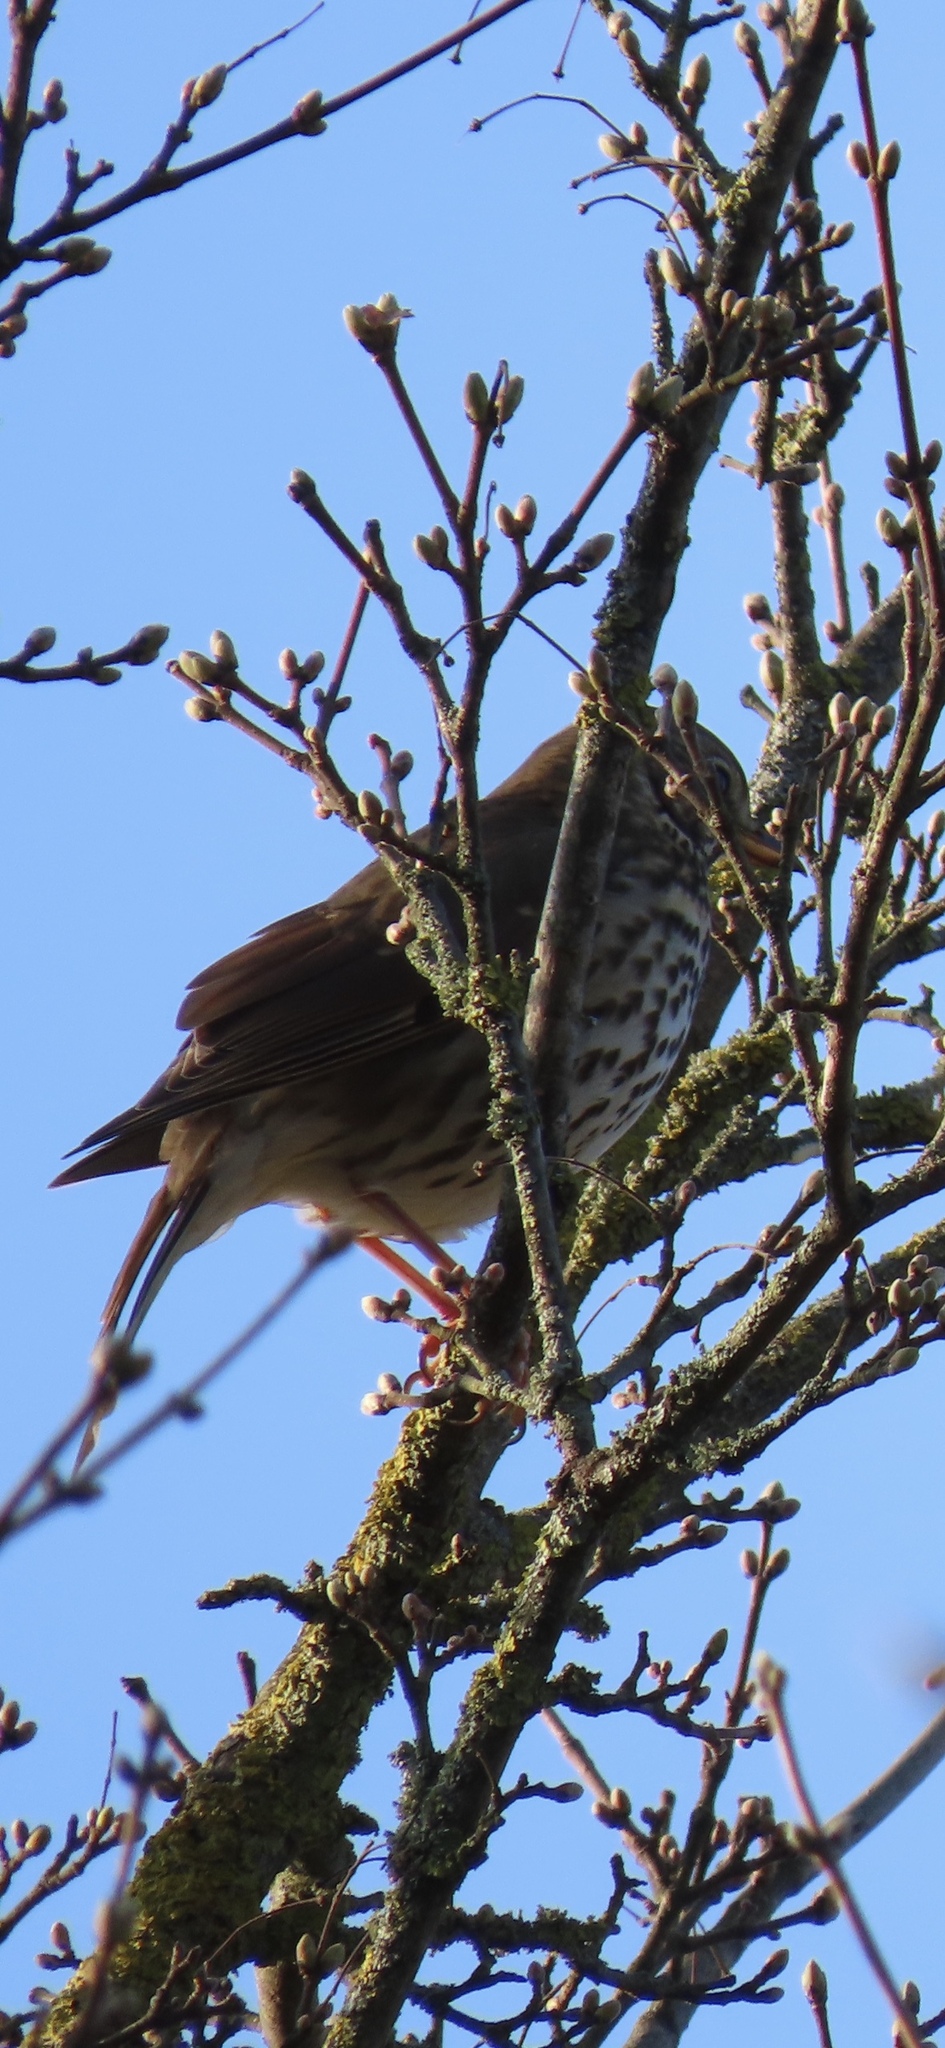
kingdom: Animalia
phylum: Chordata
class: Aves
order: Passeriformes
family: Turdidae
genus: Turdus
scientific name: Turdus philomelos
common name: Song thrush
